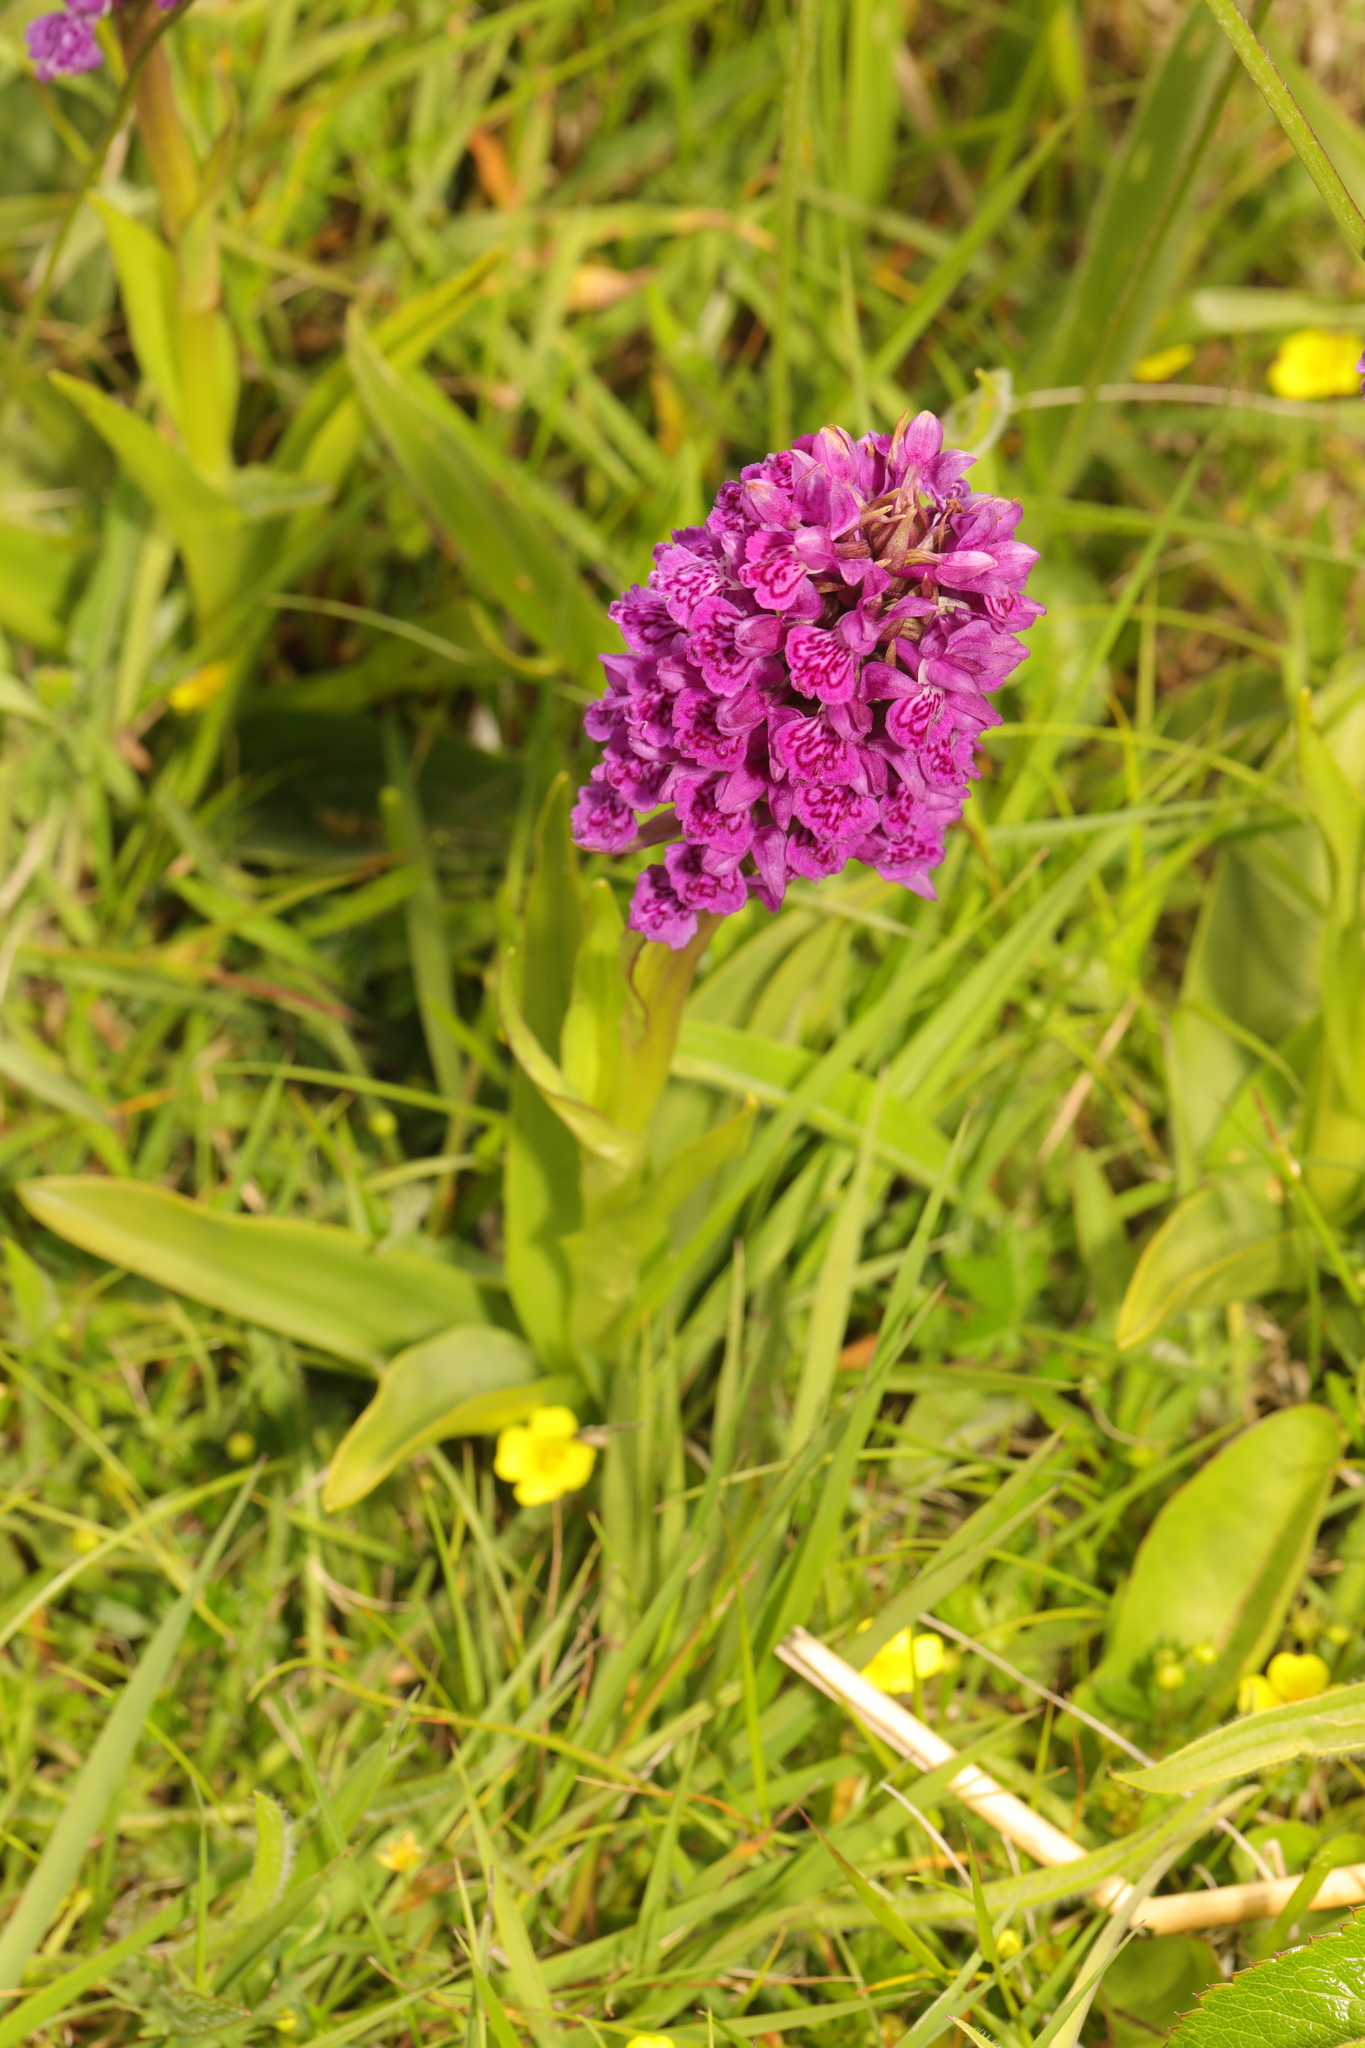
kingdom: Plantae
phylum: Tracheophyta
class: Liliopsida
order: Asparagales
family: Orchidaceae
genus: Dactylorhiza
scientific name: Dactylorhiza majalis
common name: Marsh orchid
